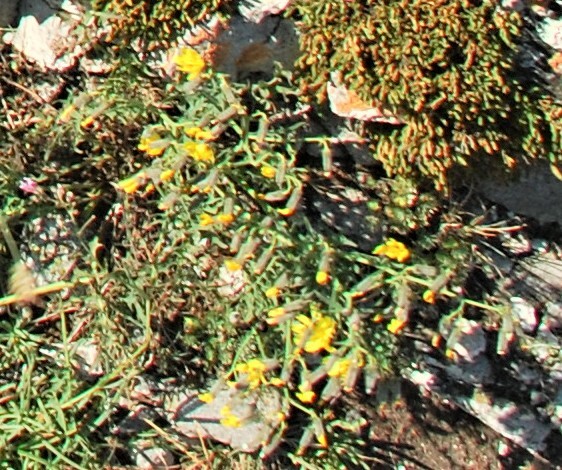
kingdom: Plantae
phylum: Tracheophyta
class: Magnoliopsida
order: Asterales
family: Asteraceae
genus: Crepidiastrum
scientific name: Crepidiastrum tenuifolium
